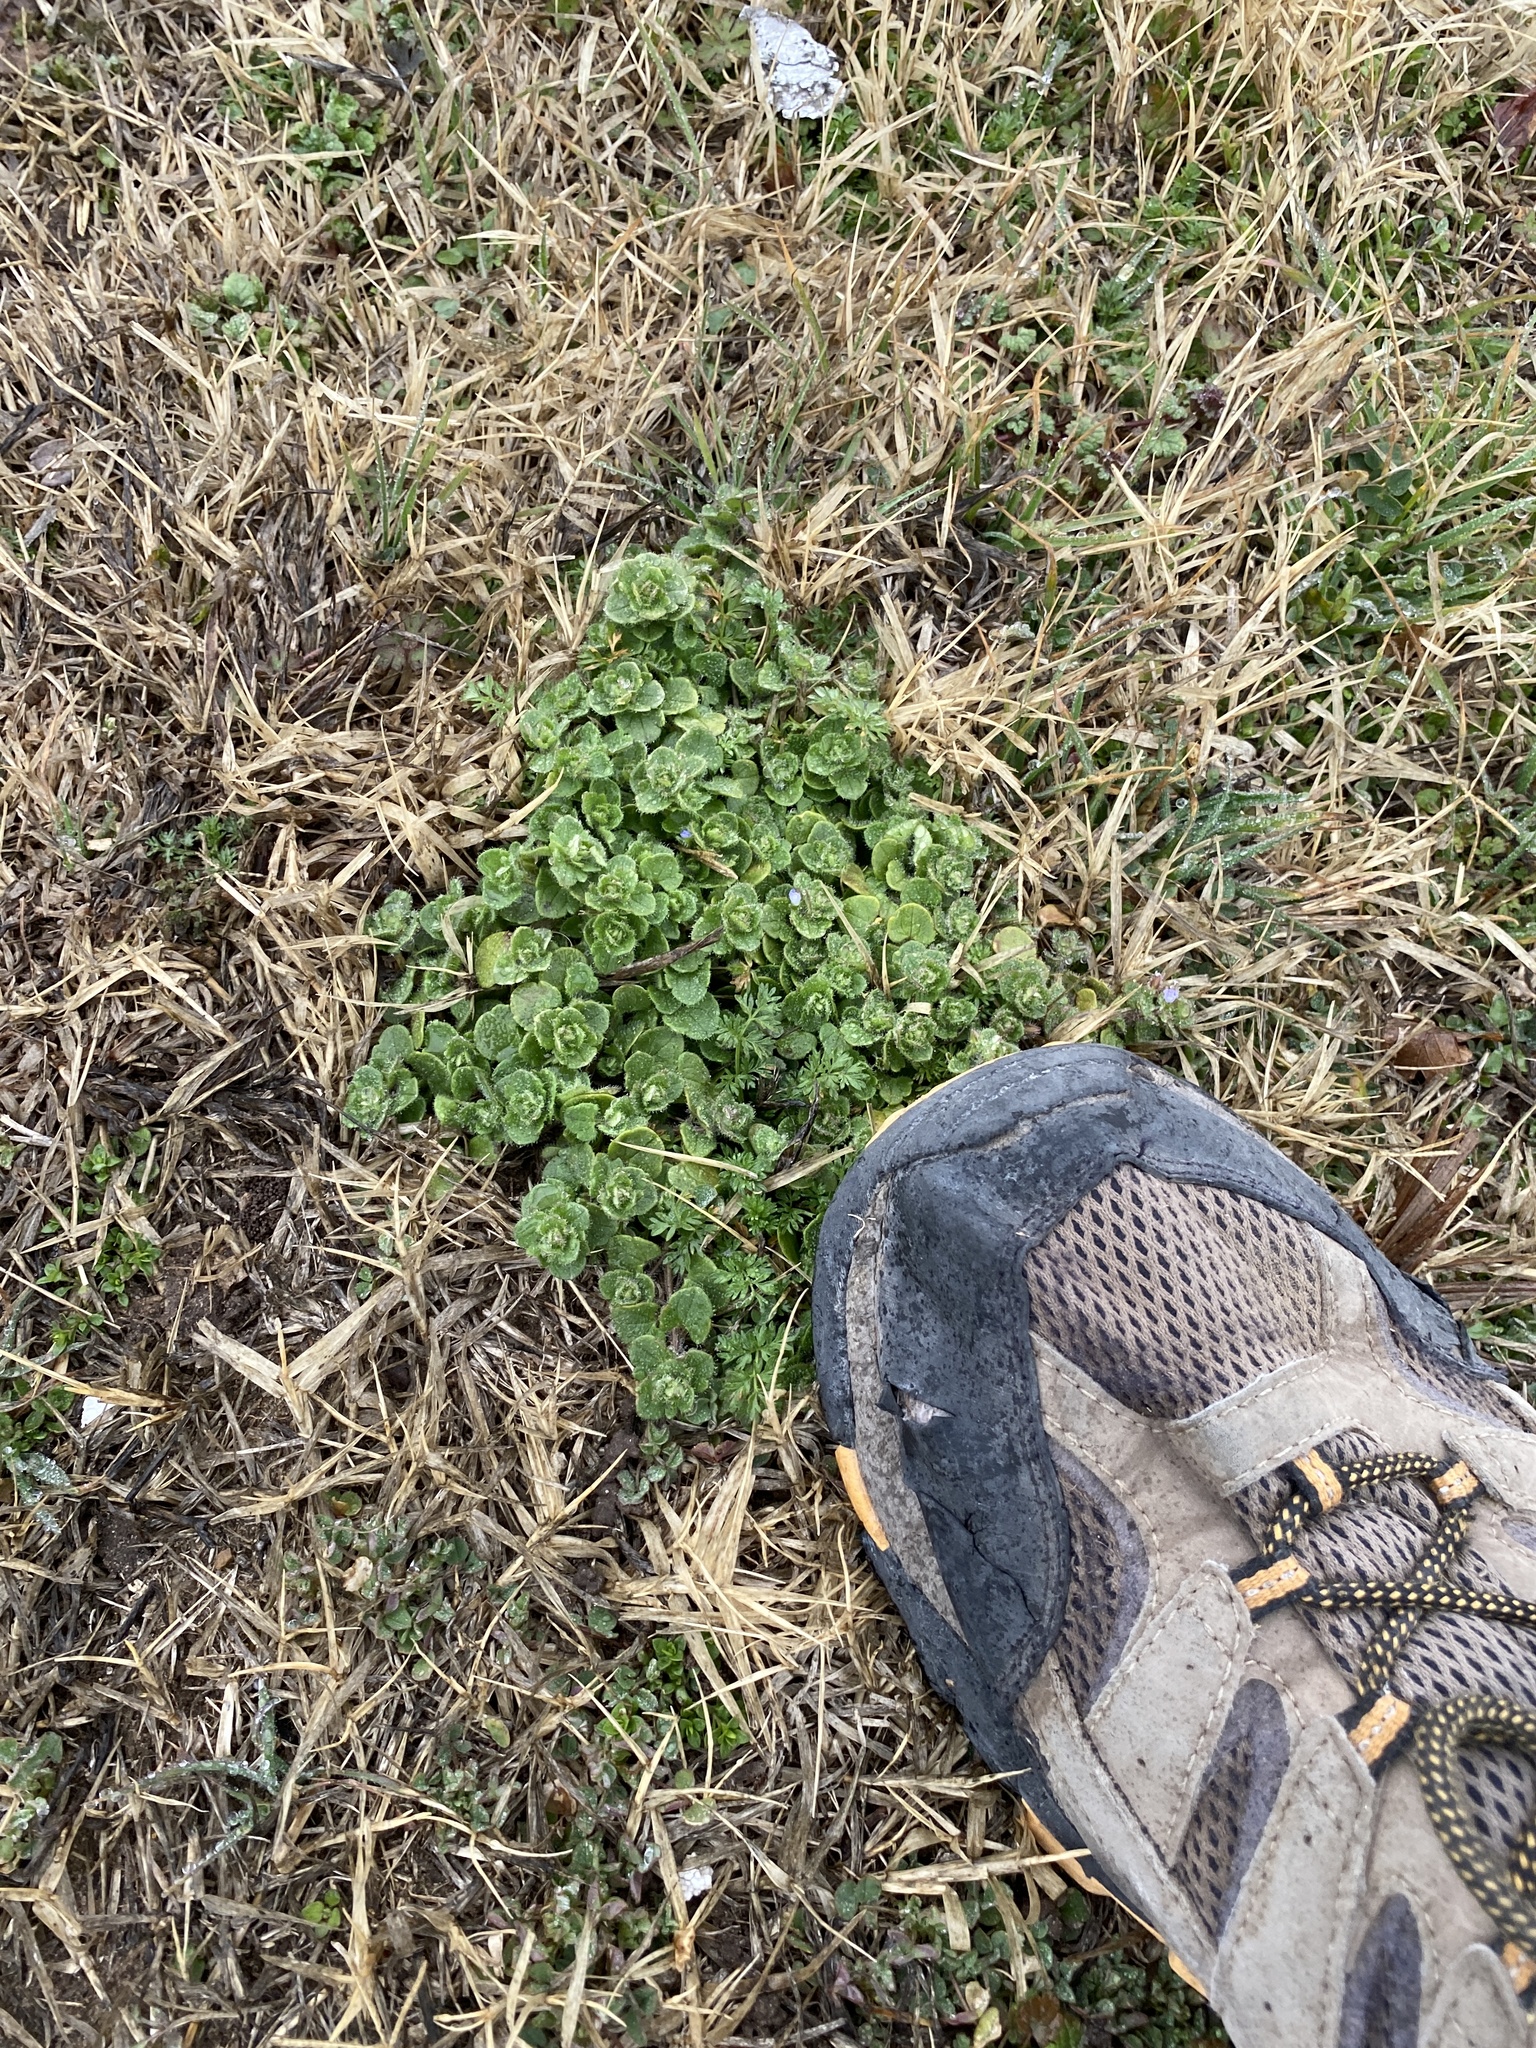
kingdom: Plantae
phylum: Tracheophyta
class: Magnoliopsida
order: Lamiales
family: Plantaginaceae
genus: Veronica
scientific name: Veronica hederifolia
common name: Ivy-leaved speedwell
